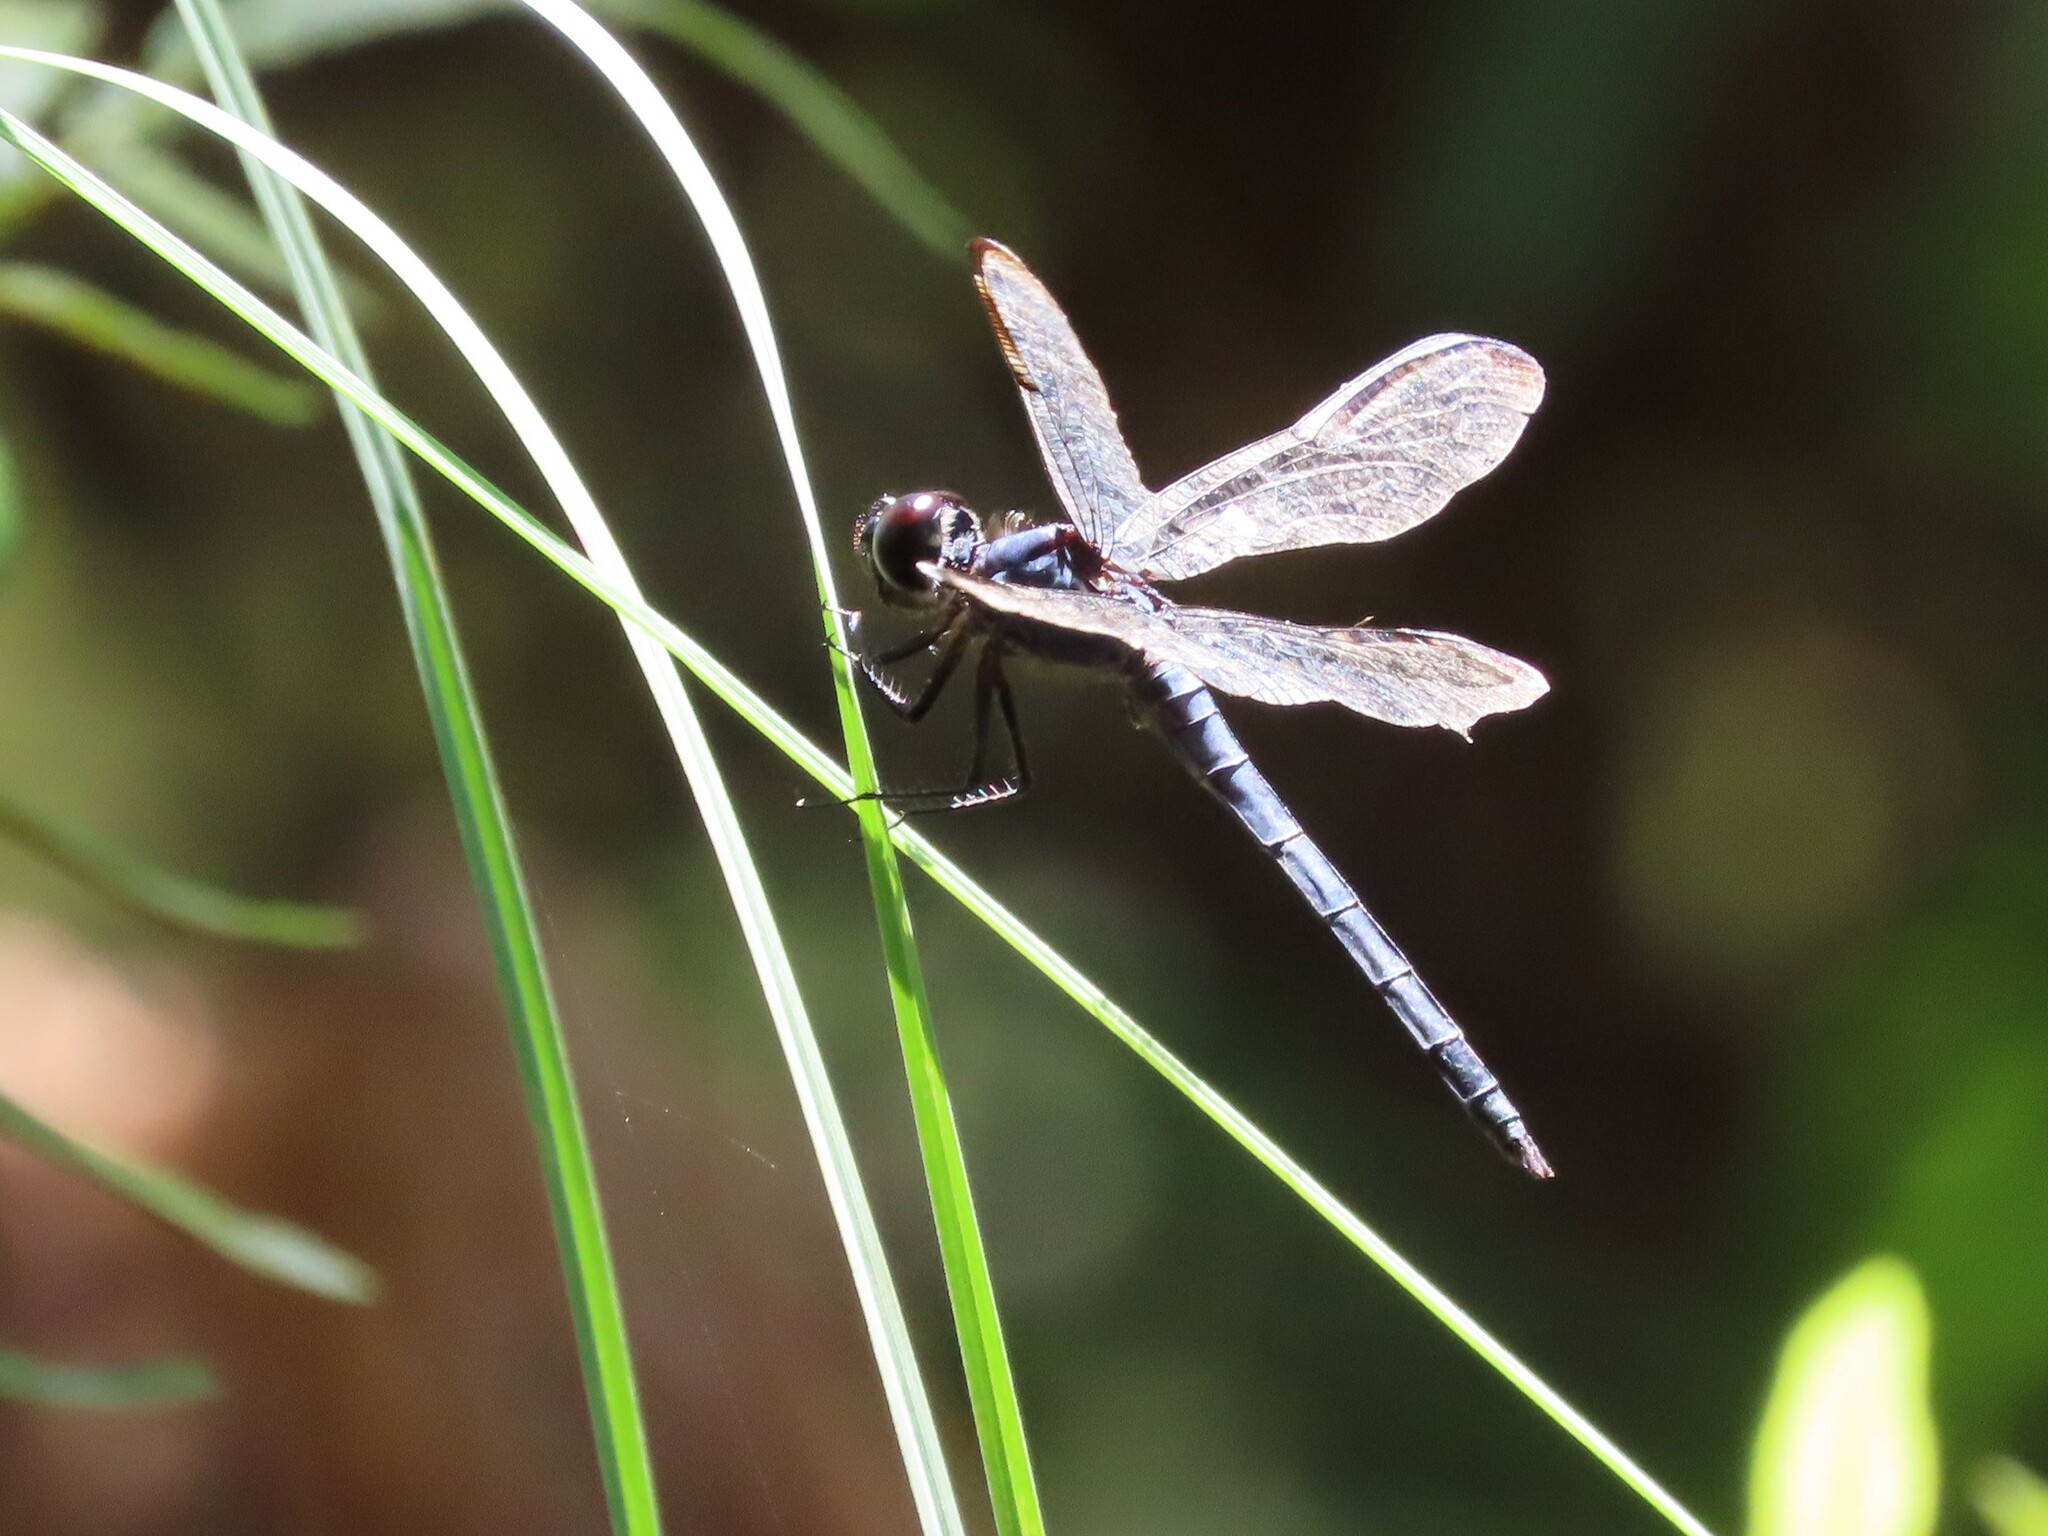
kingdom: Animalia
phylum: Arthropoda
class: Insecta
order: Odonata
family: Libellulidae
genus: Libellula
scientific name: Libellula incesta
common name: Slaty skimmer
